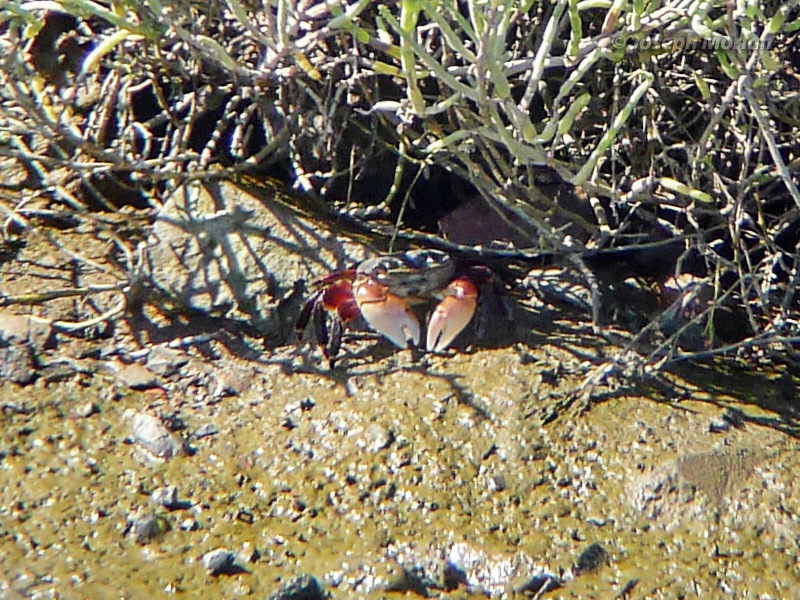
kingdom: Animalia
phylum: Arthropoda
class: Malacostraca
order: Decapoda
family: Grapsidae
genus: Pachygrapsus
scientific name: Pachygrapsus crassipes
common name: Striped shore crab
